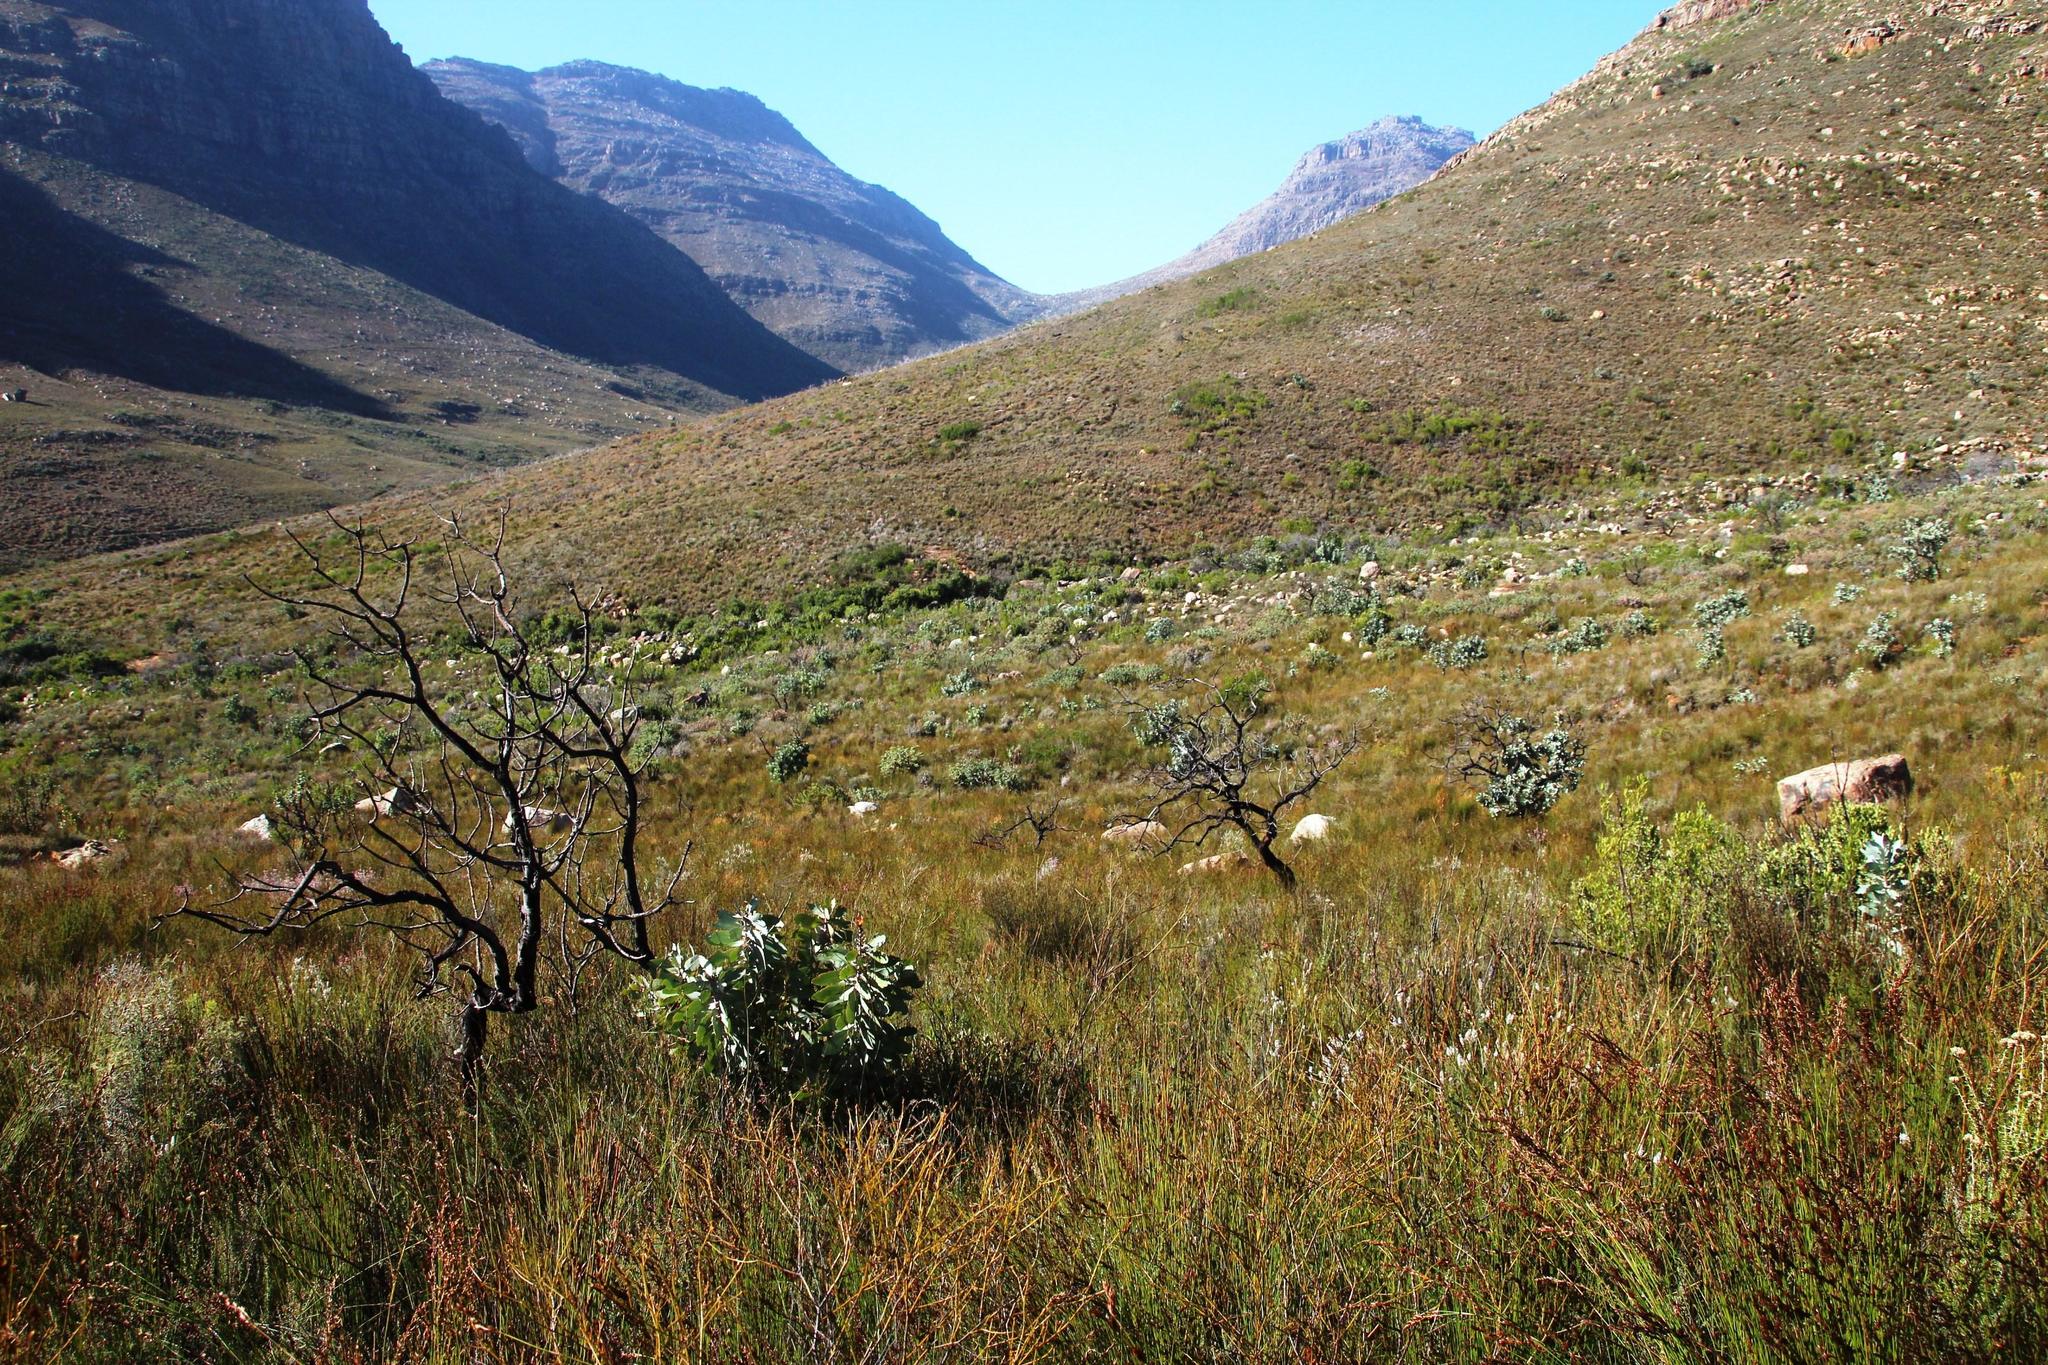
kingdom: Plantae
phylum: Tracheophyta
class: Magnoliopsida
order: Proteales
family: Proteaceae
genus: Protea
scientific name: Protea nitida
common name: Tree protea
